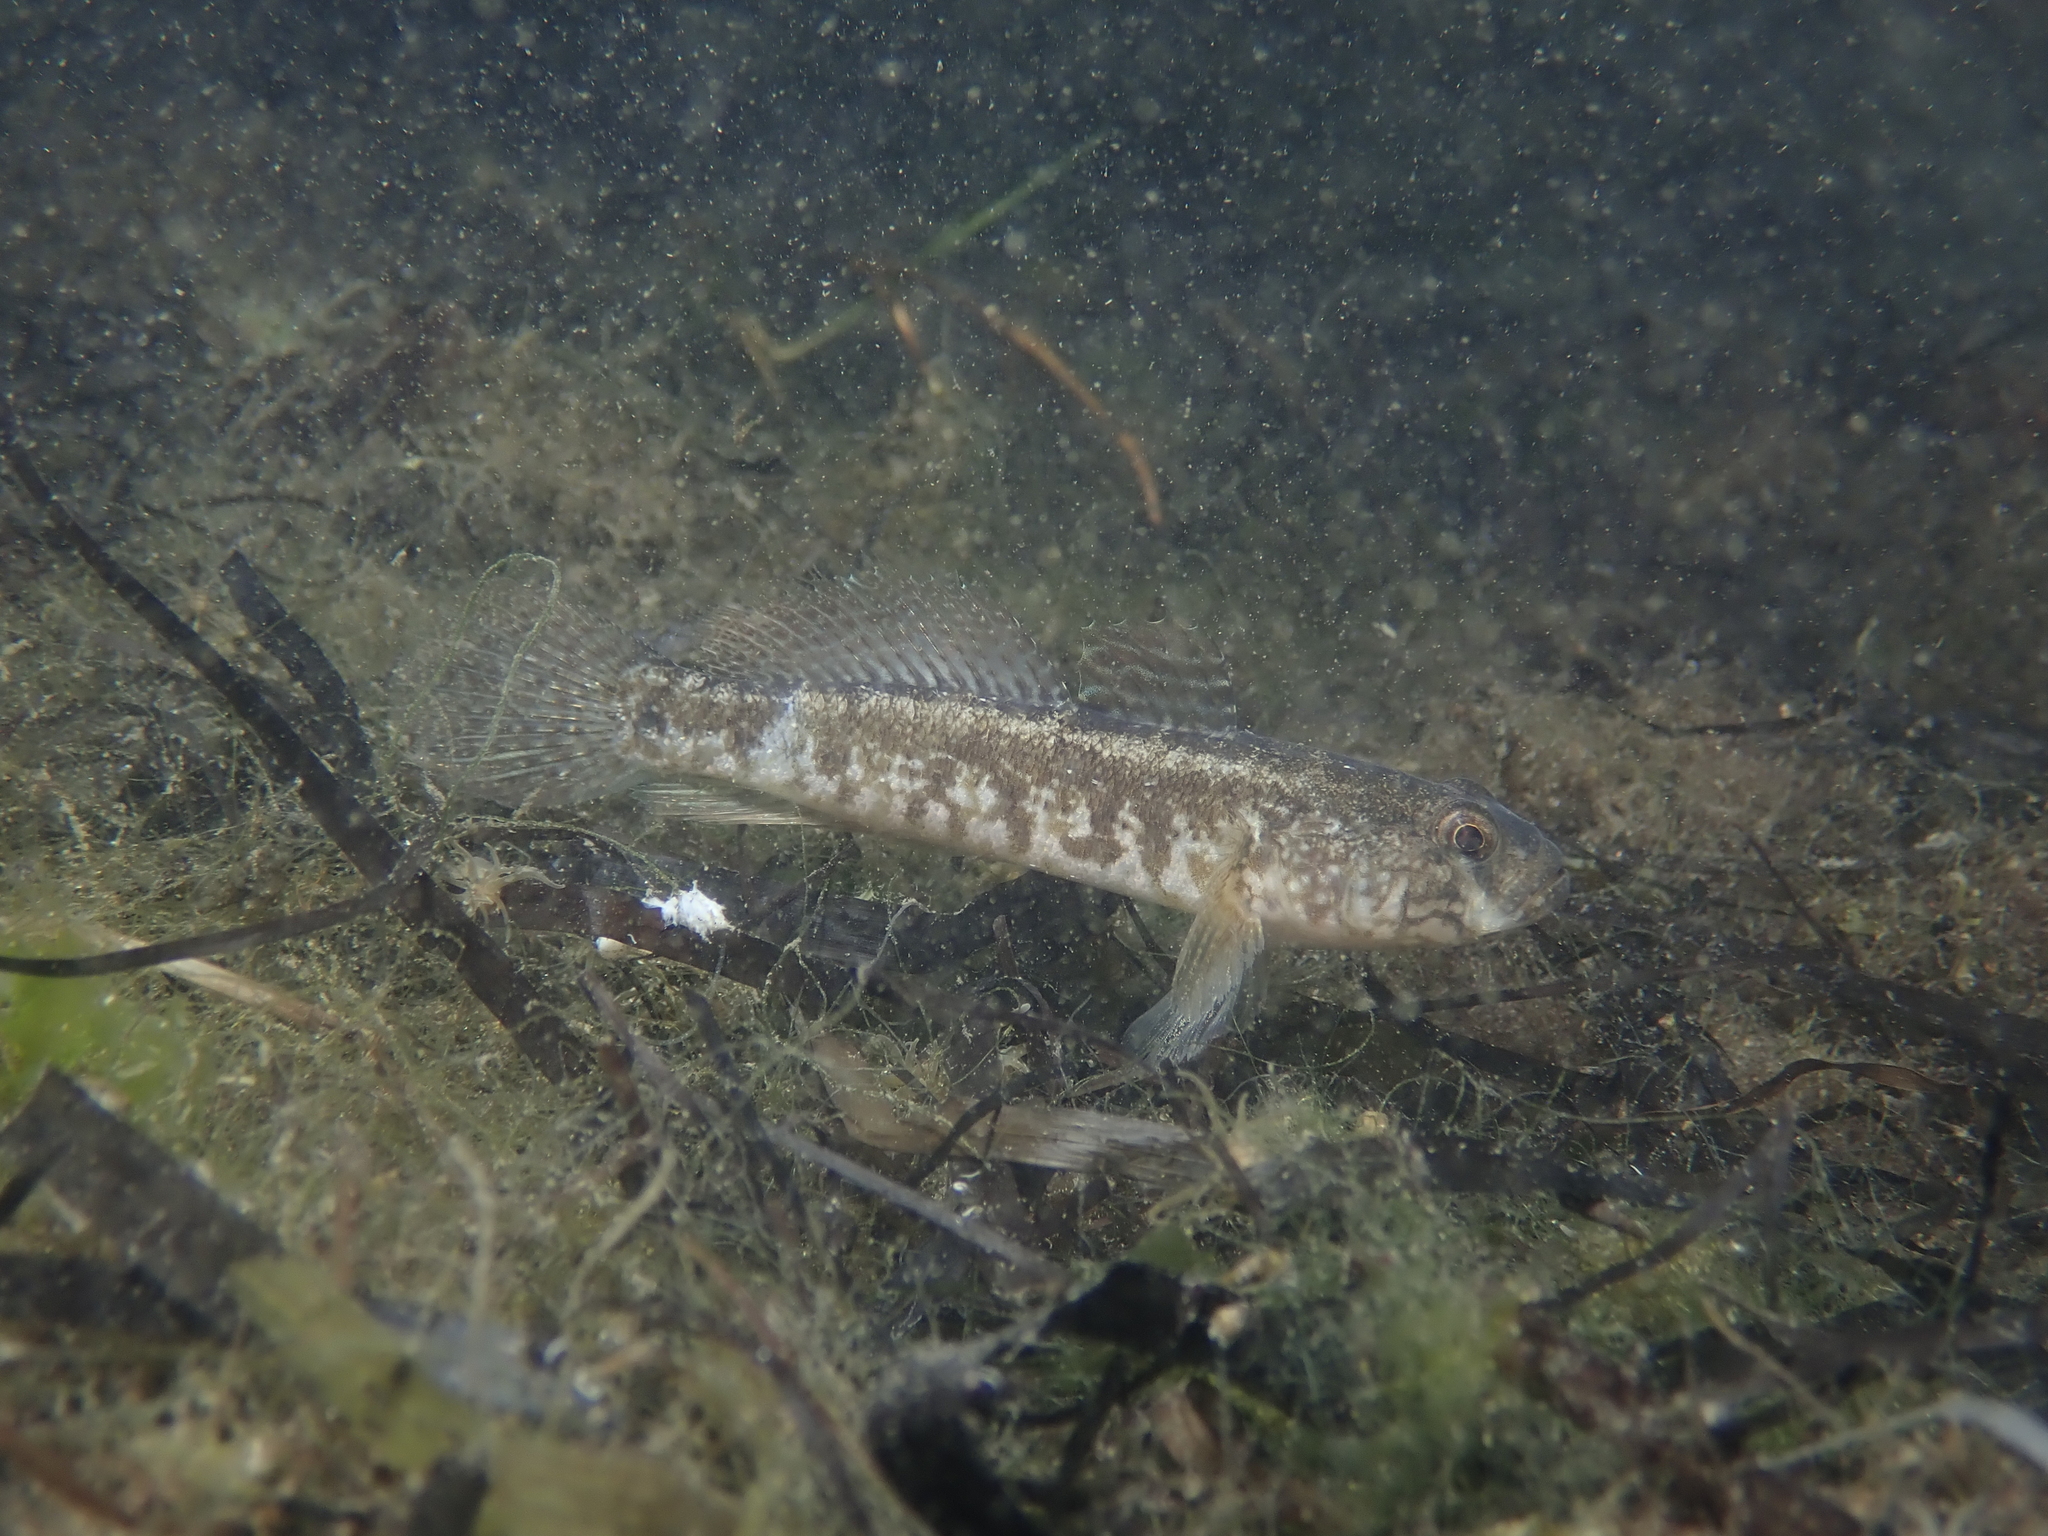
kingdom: Animalia
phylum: Chordata
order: Perciformes
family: Gobiidae
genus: Zosterisessor
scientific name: Zosterisessor ophiocephalus
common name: Grass goby
